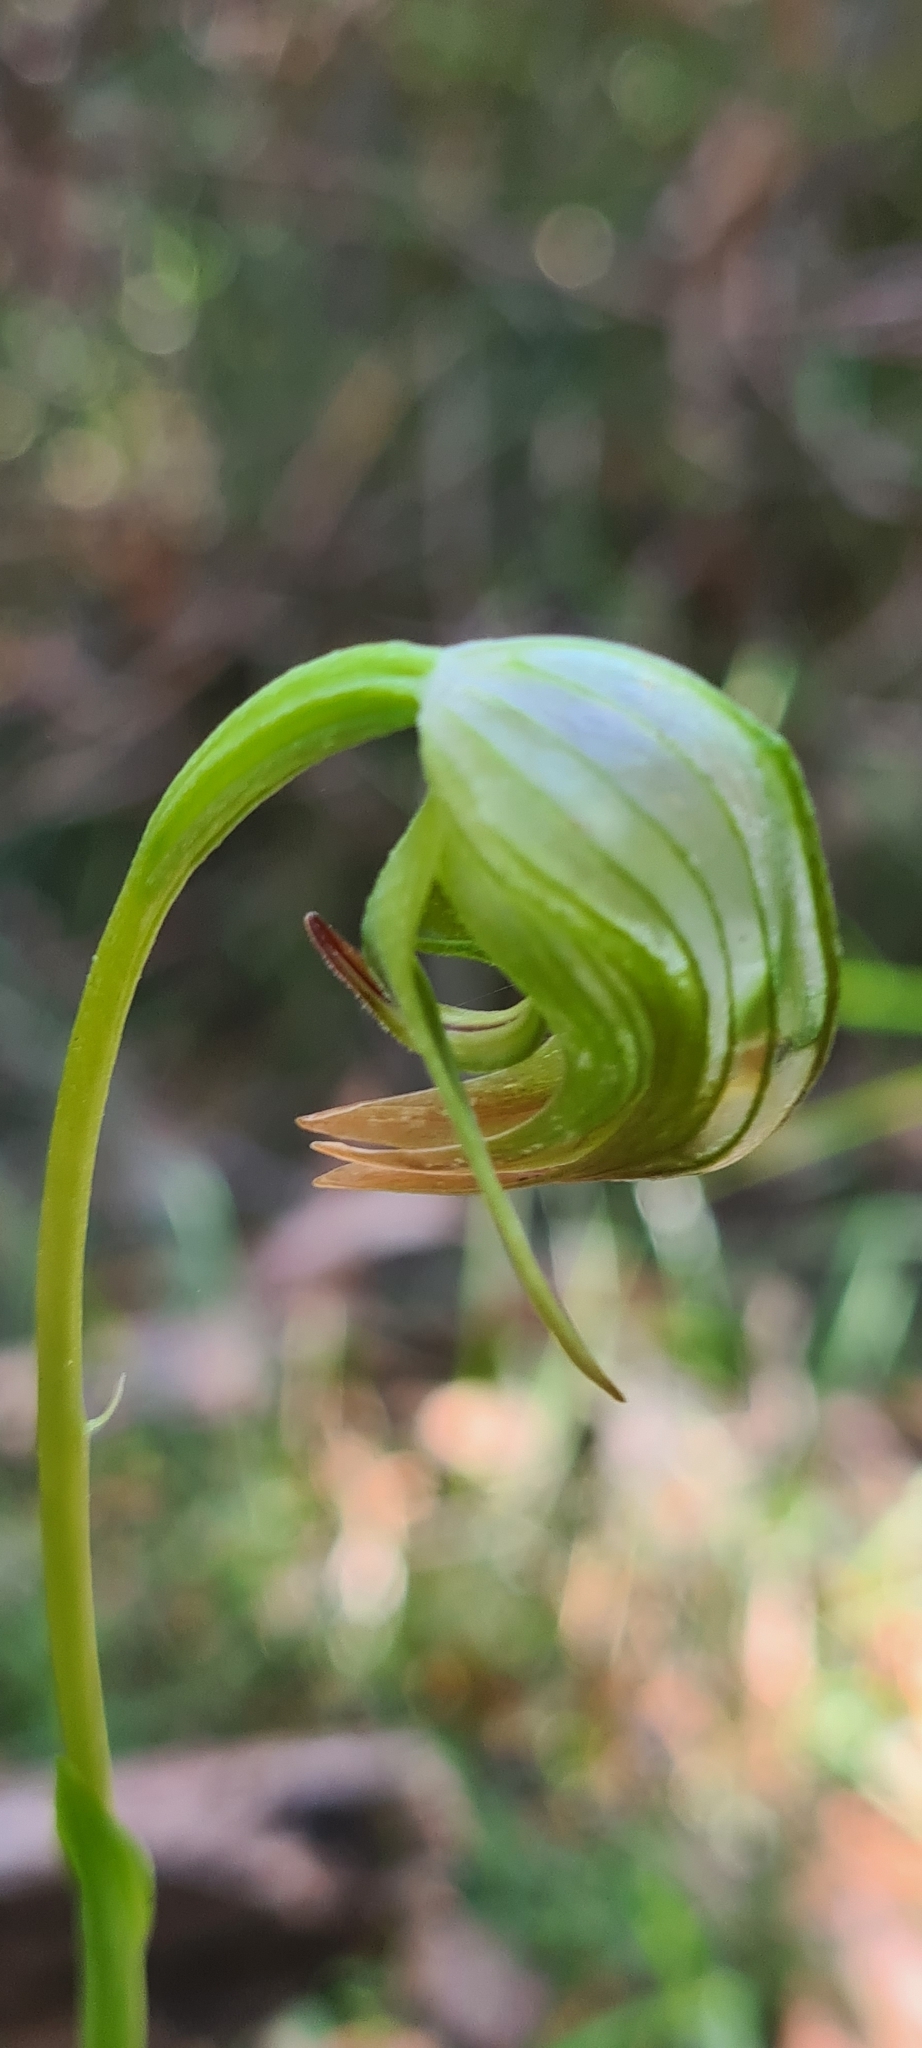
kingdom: Plantae
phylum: Tracheophyta
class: Liliopsida
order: Asparagales
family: Orchidaceae
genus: Pterostylis
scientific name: Pterostylis nutans
